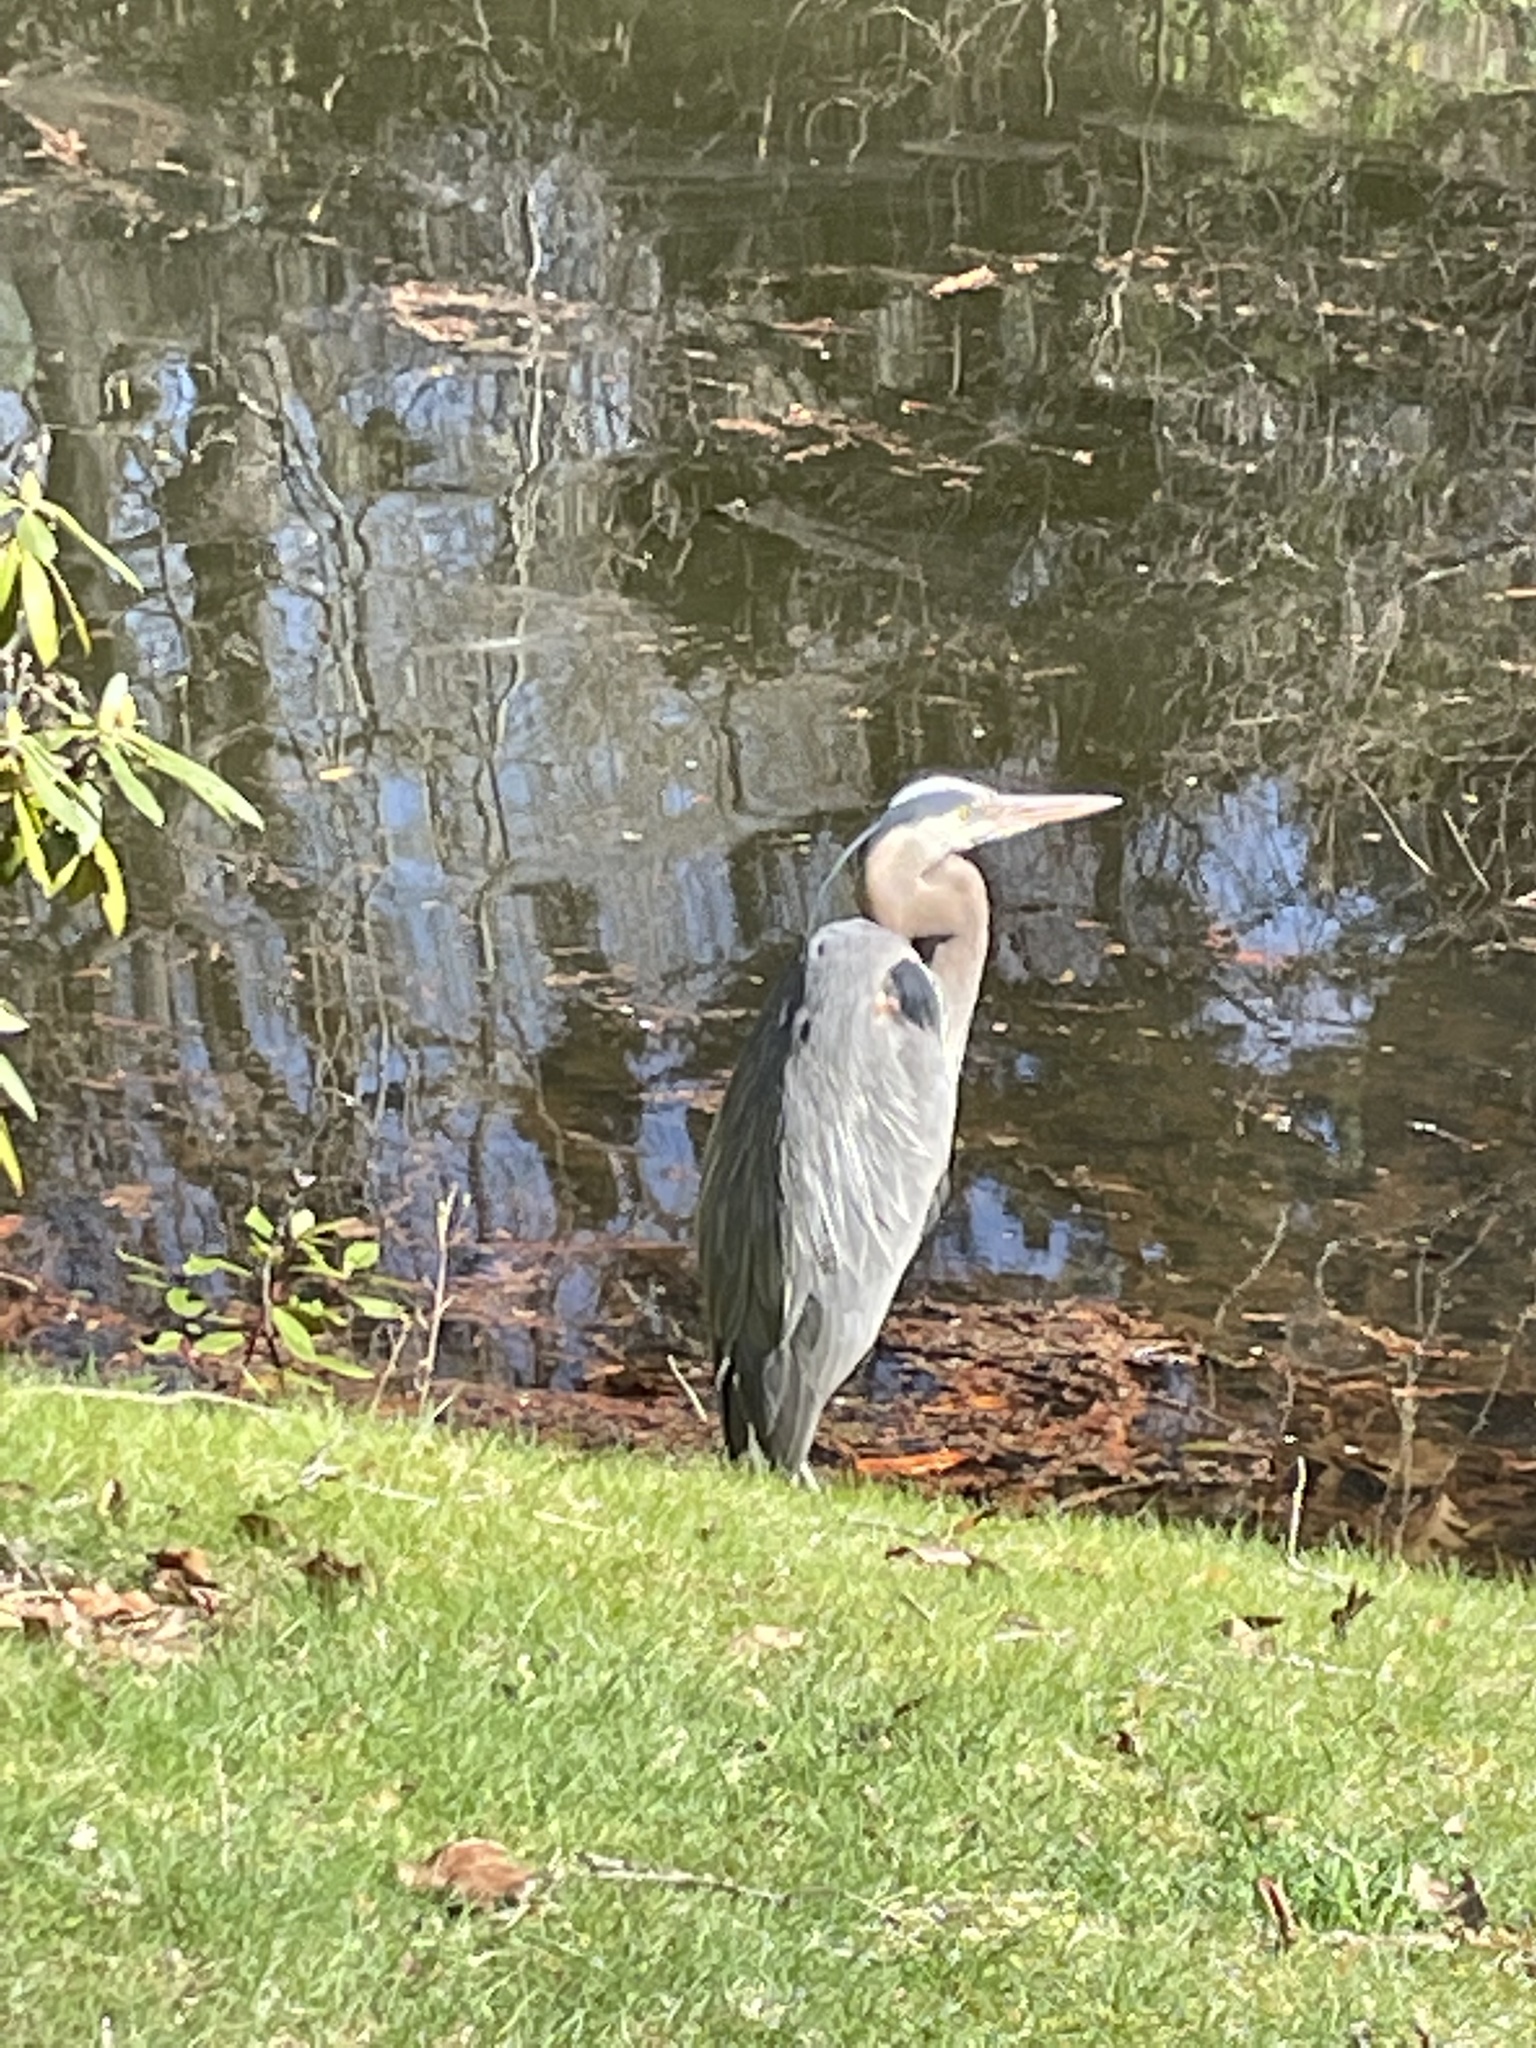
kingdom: Animalia
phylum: Chordata
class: Aves
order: Pelecaniformes
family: Ardeidae
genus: Ardea
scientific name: Ardea herodias
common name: Great blue heron
